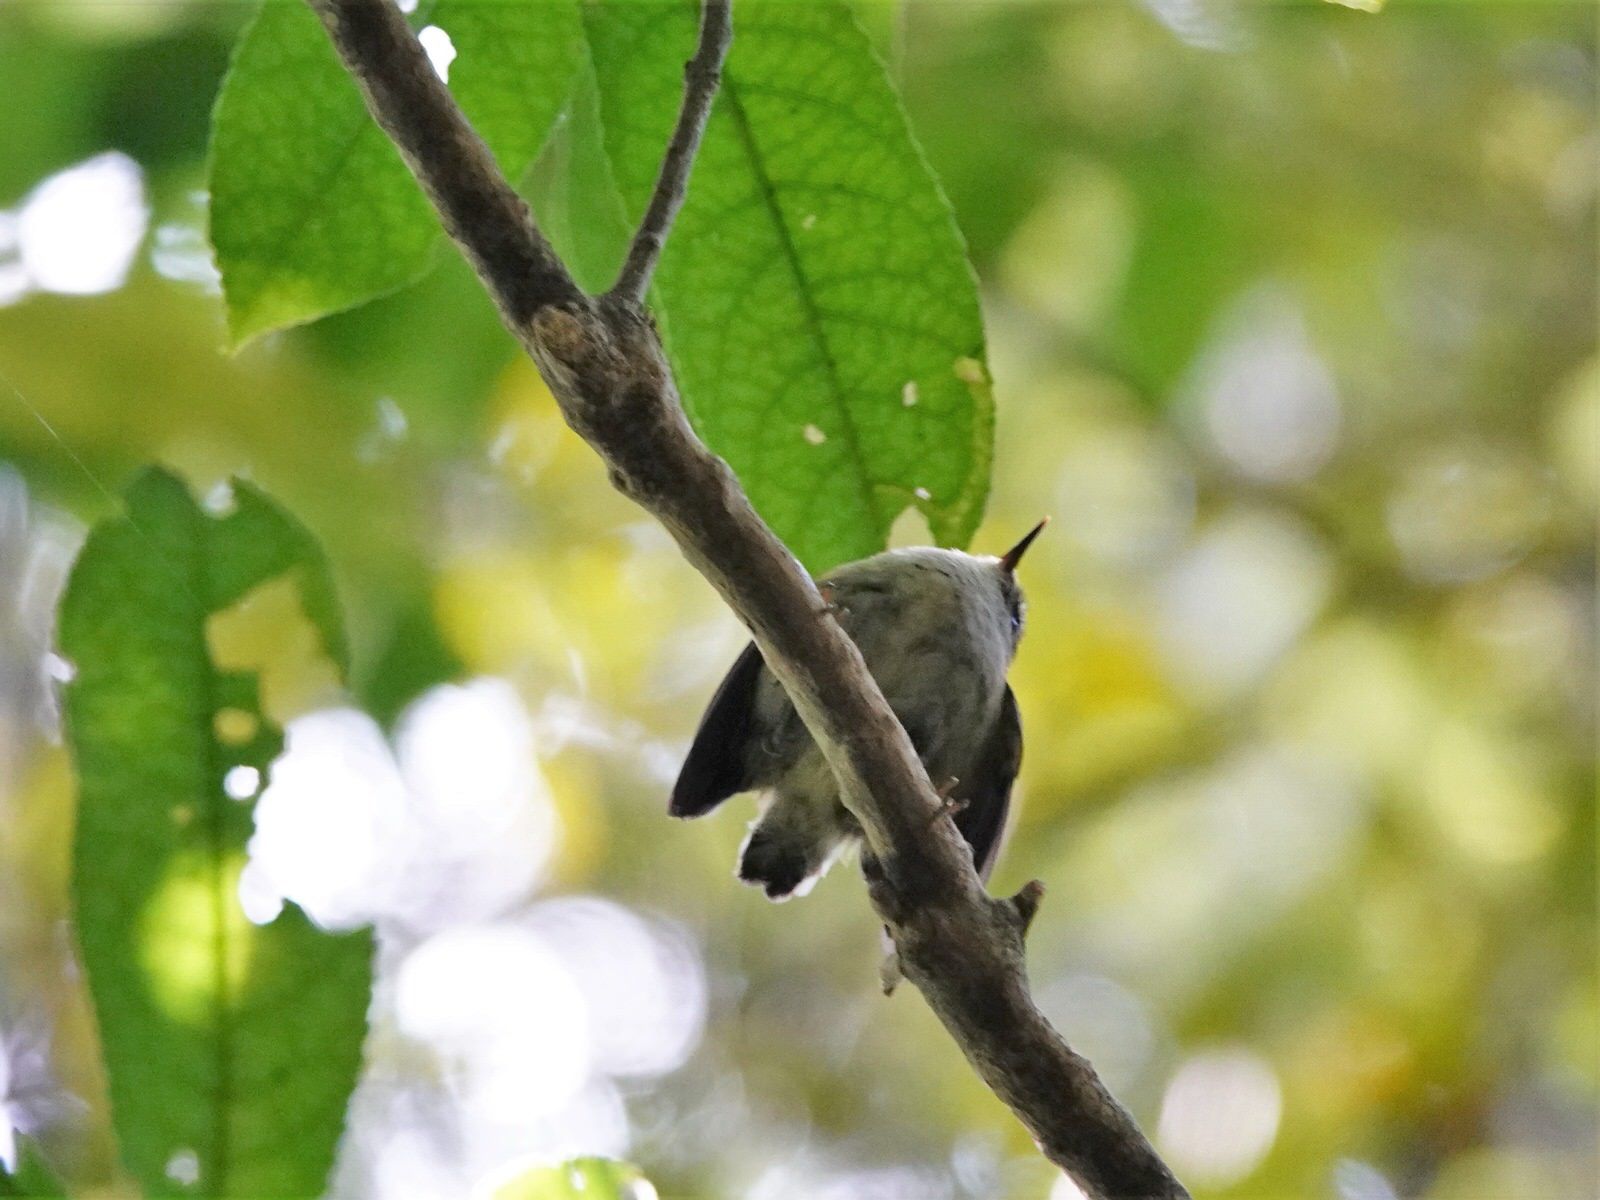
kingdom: Animalia
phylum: Chordata
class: Aves
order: Passeriformes
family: Acanthisittidae
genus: Acanthisitta
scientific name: Acanthisitta chloris
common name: Rifleman
